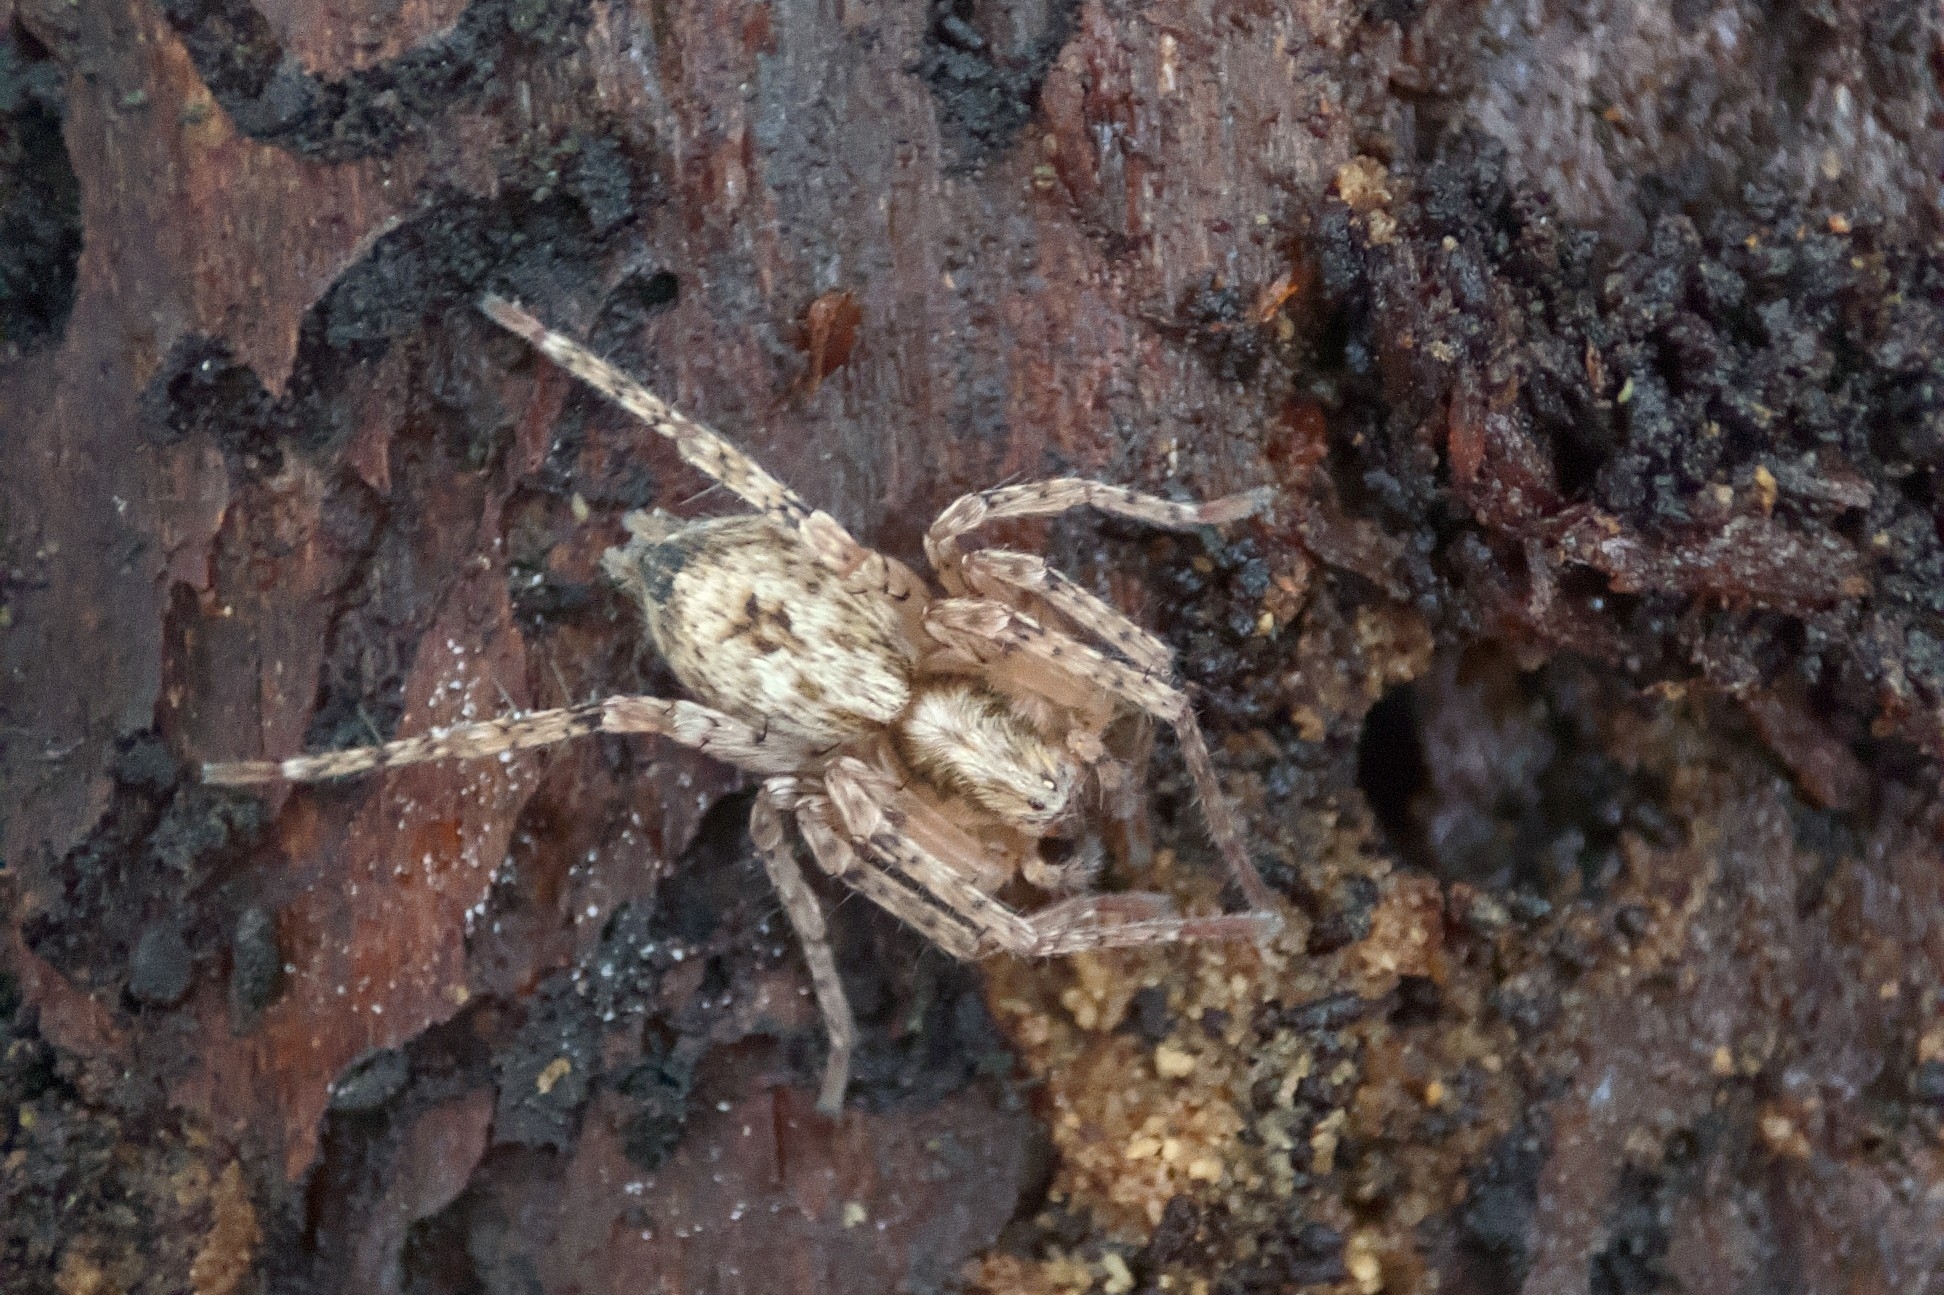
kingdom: Animalia
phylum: Arthropoda
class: Arachnida
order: Araneae
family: Anyphaenidae
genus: Anyphaena
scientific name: Anyphaena accentuata
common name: Buzzing spider
